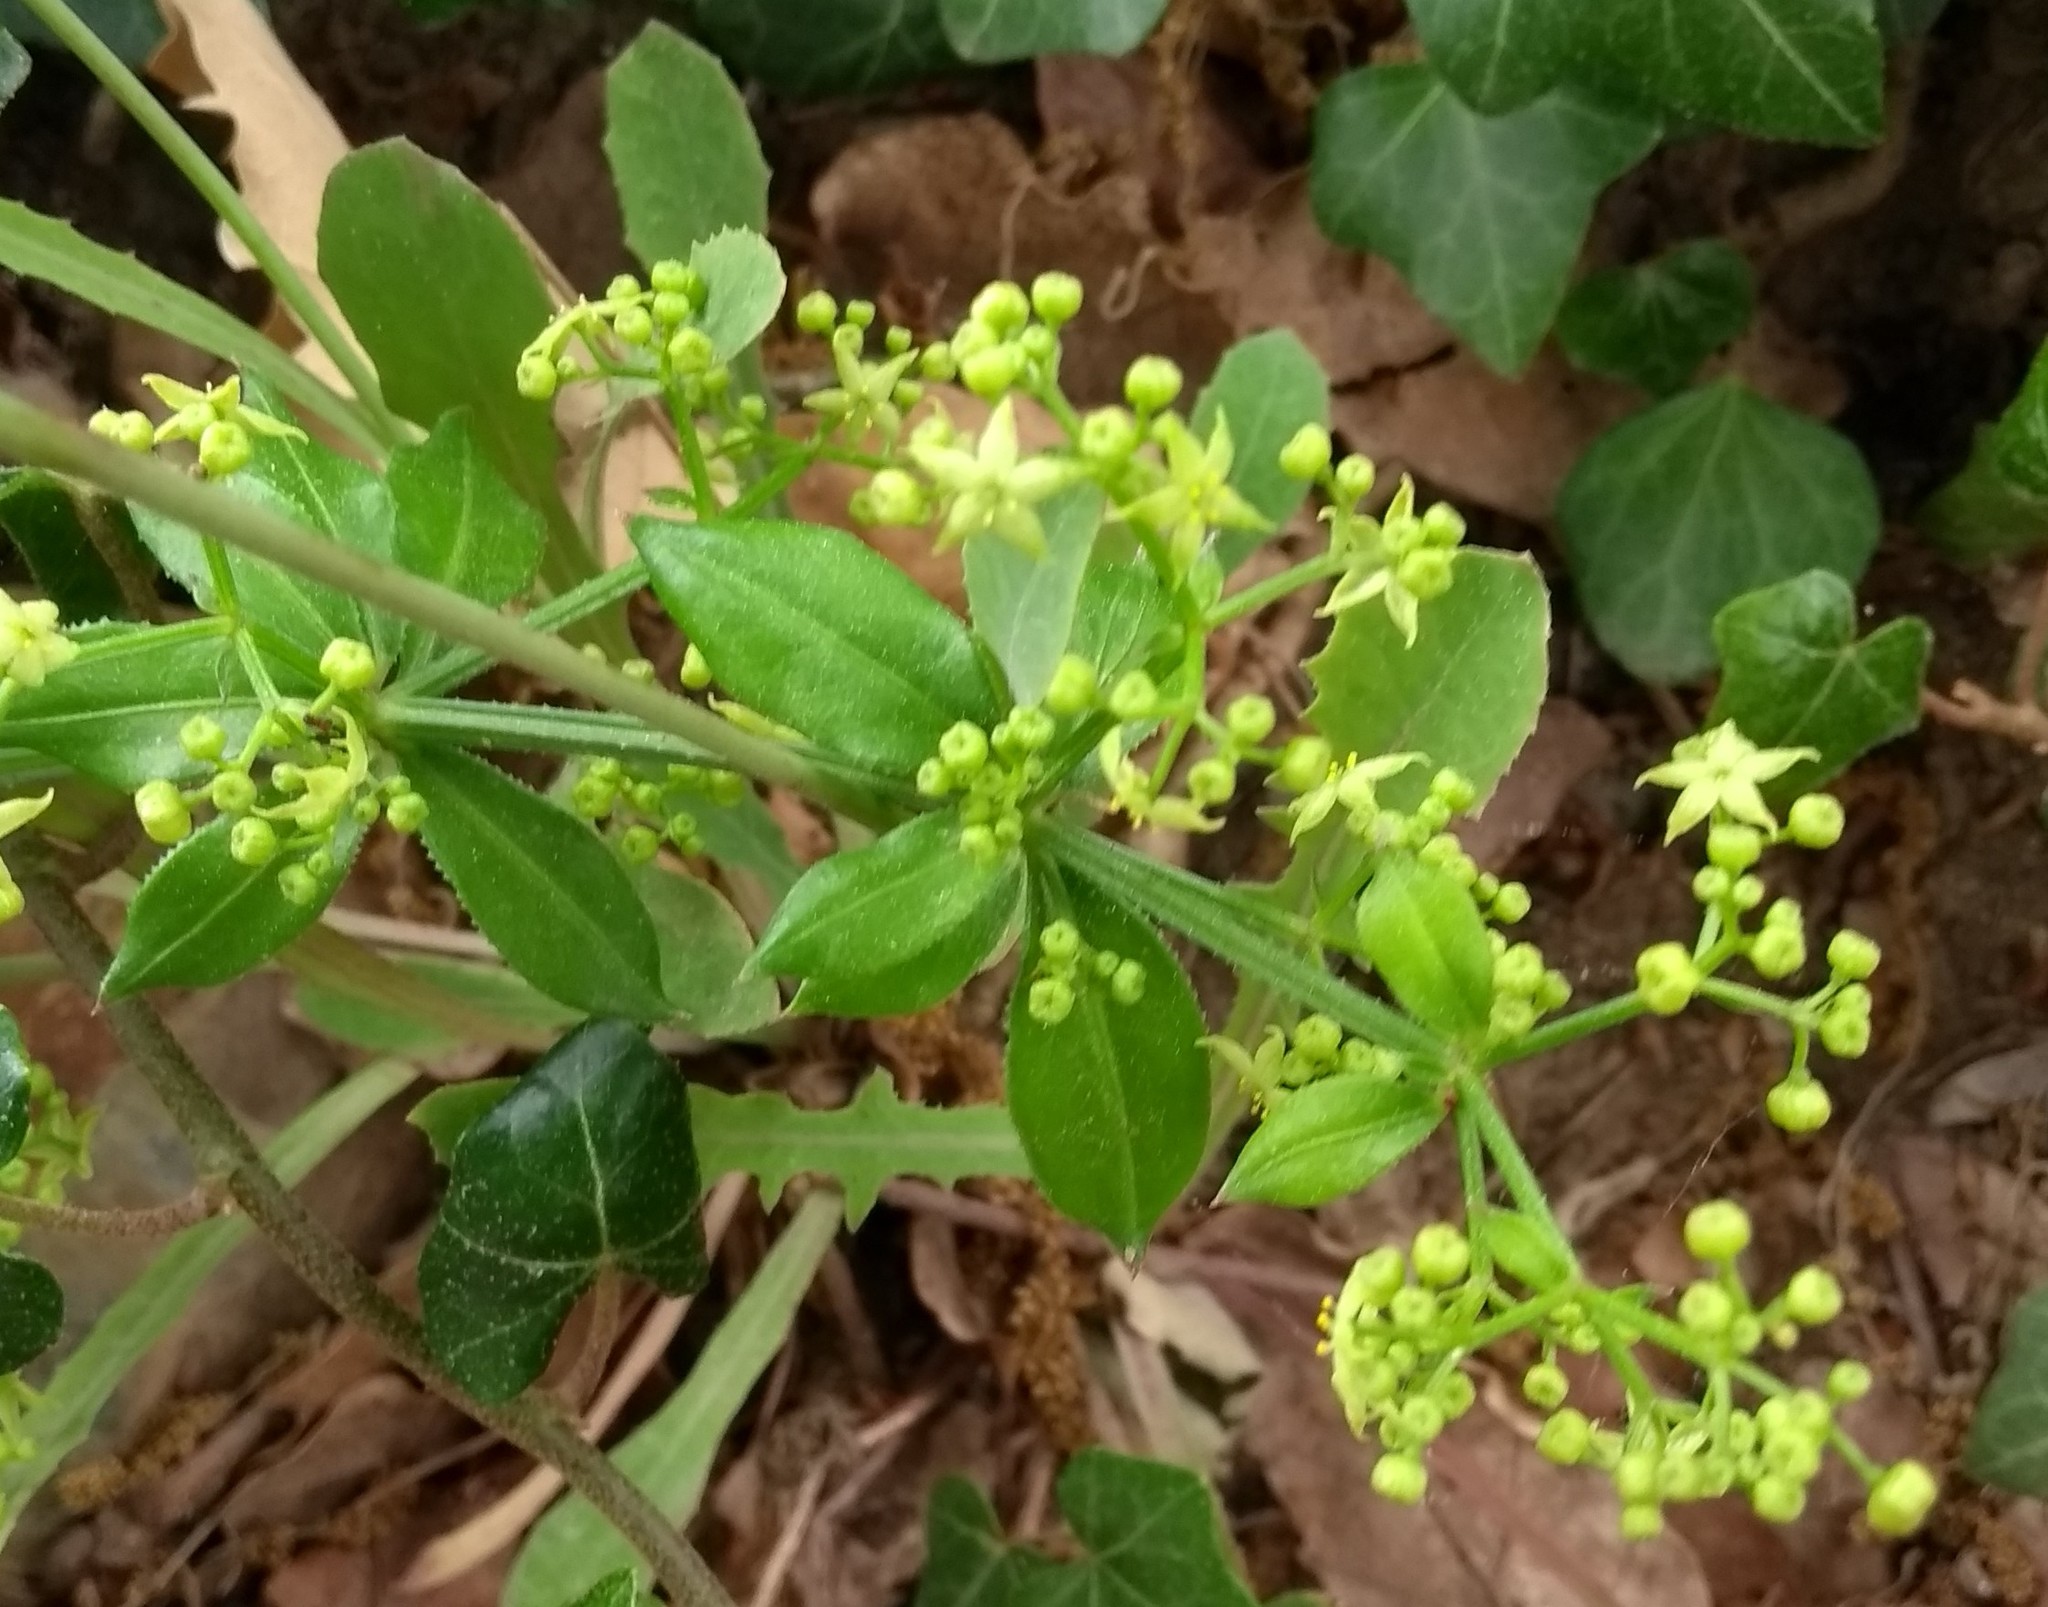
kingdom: Plantae
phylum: Tracheophyta
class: Magnoliopsida
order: Gentianales
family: Rubiaceae
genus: Rubia
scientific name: Rubia peregrina
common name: Wild madder
